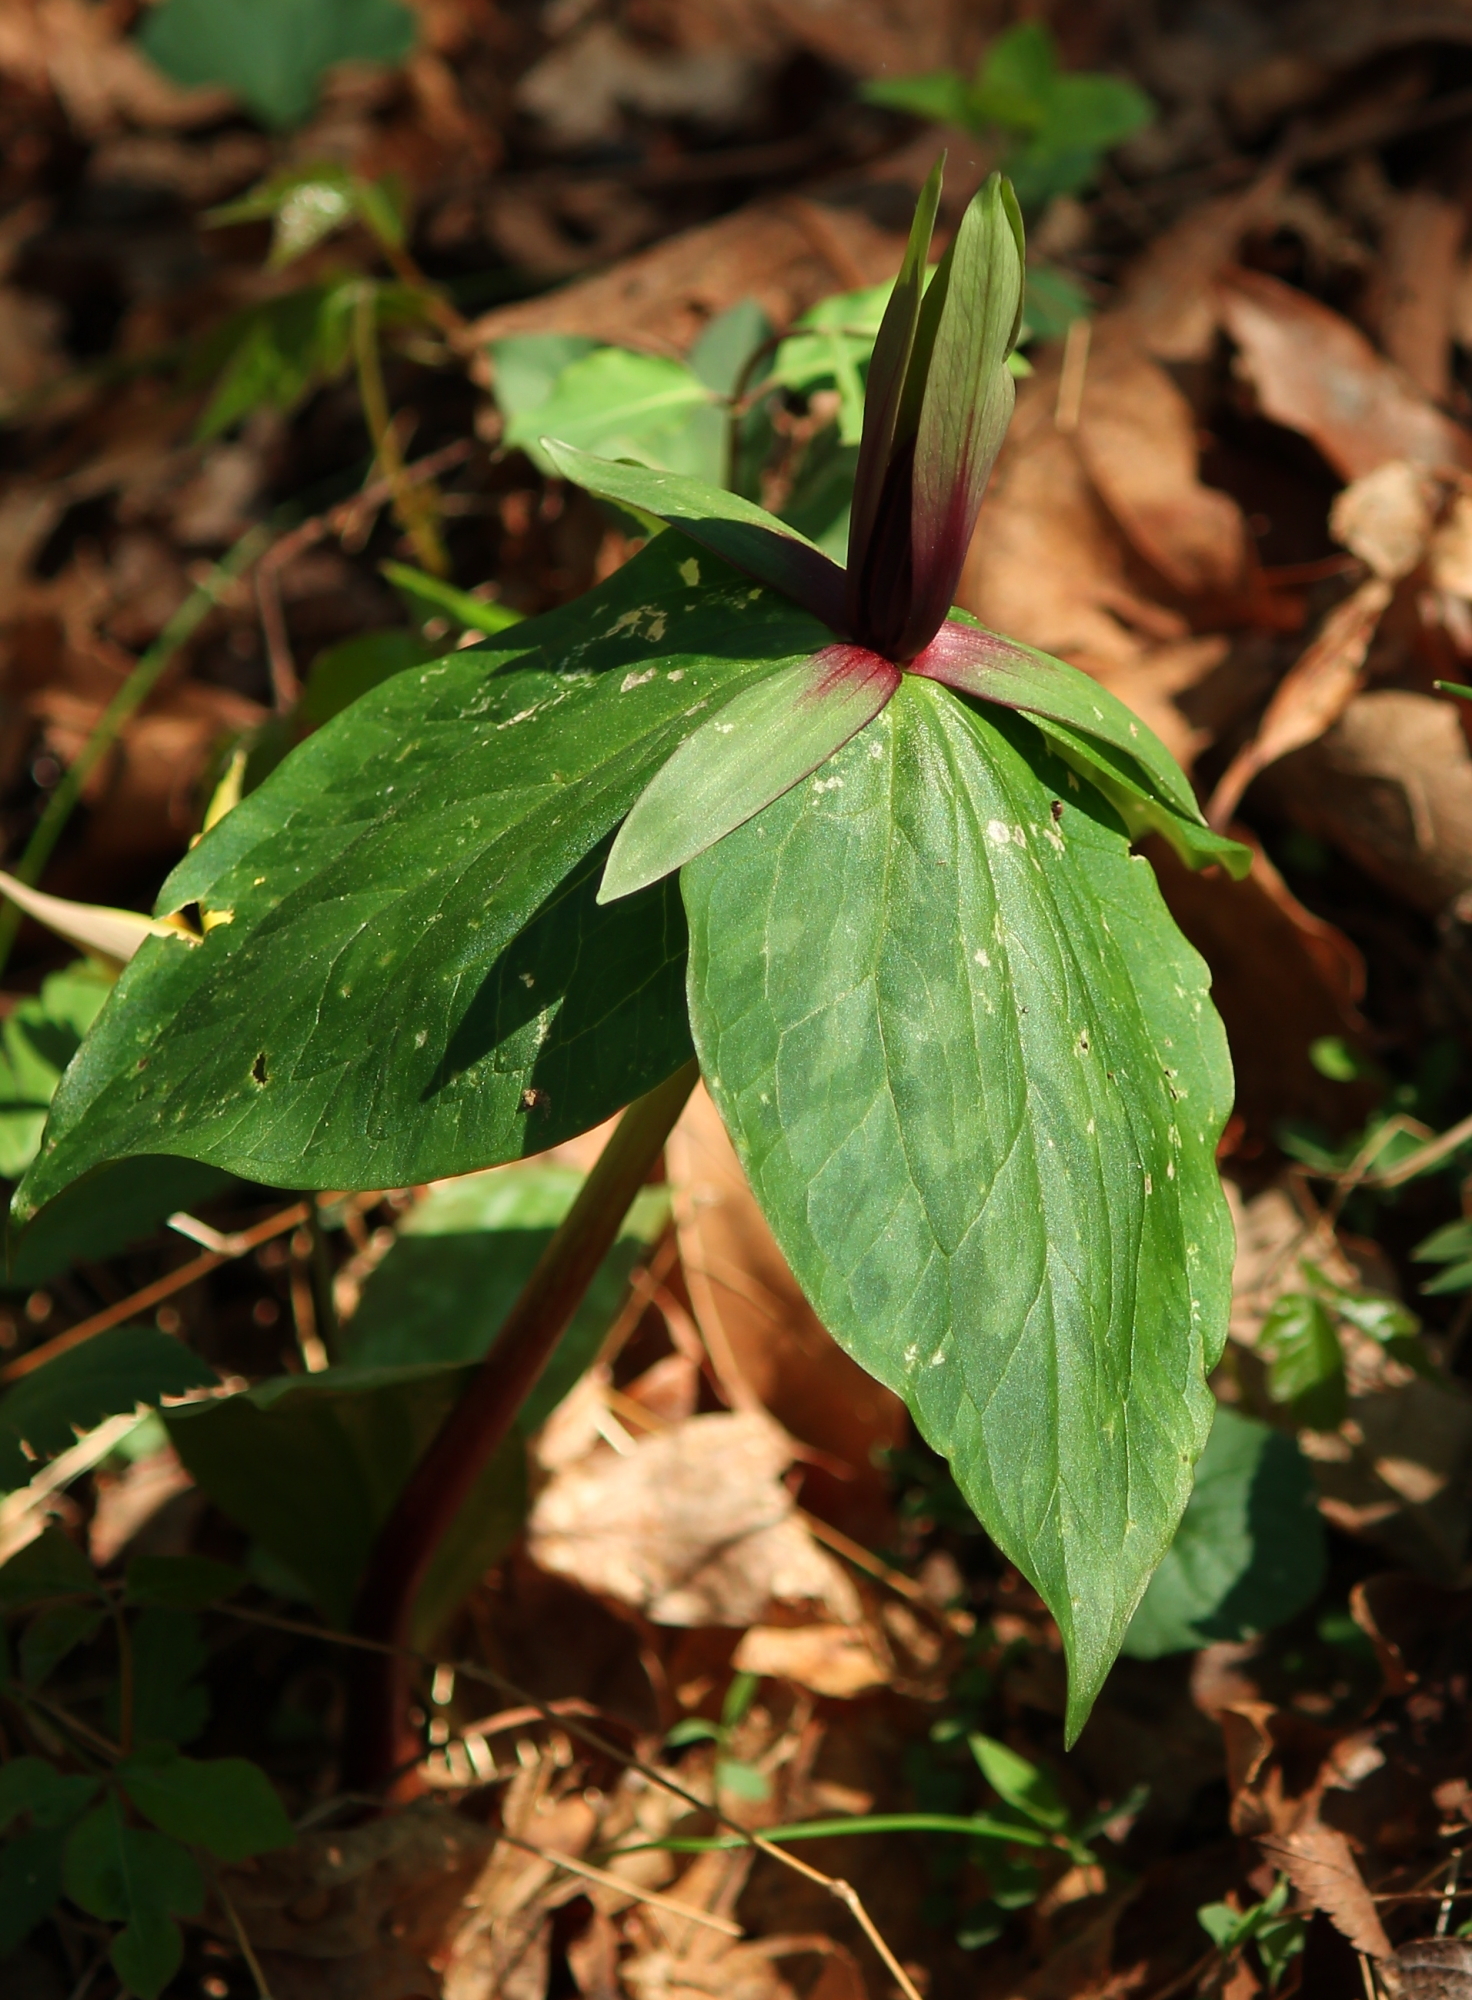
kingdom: Plantae
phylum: Tracheophyta
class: Liliopsida
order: Liliales
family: Melanthiaceae
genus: Trillium
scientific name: Trillium viridescens
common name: Ozark green trillium
